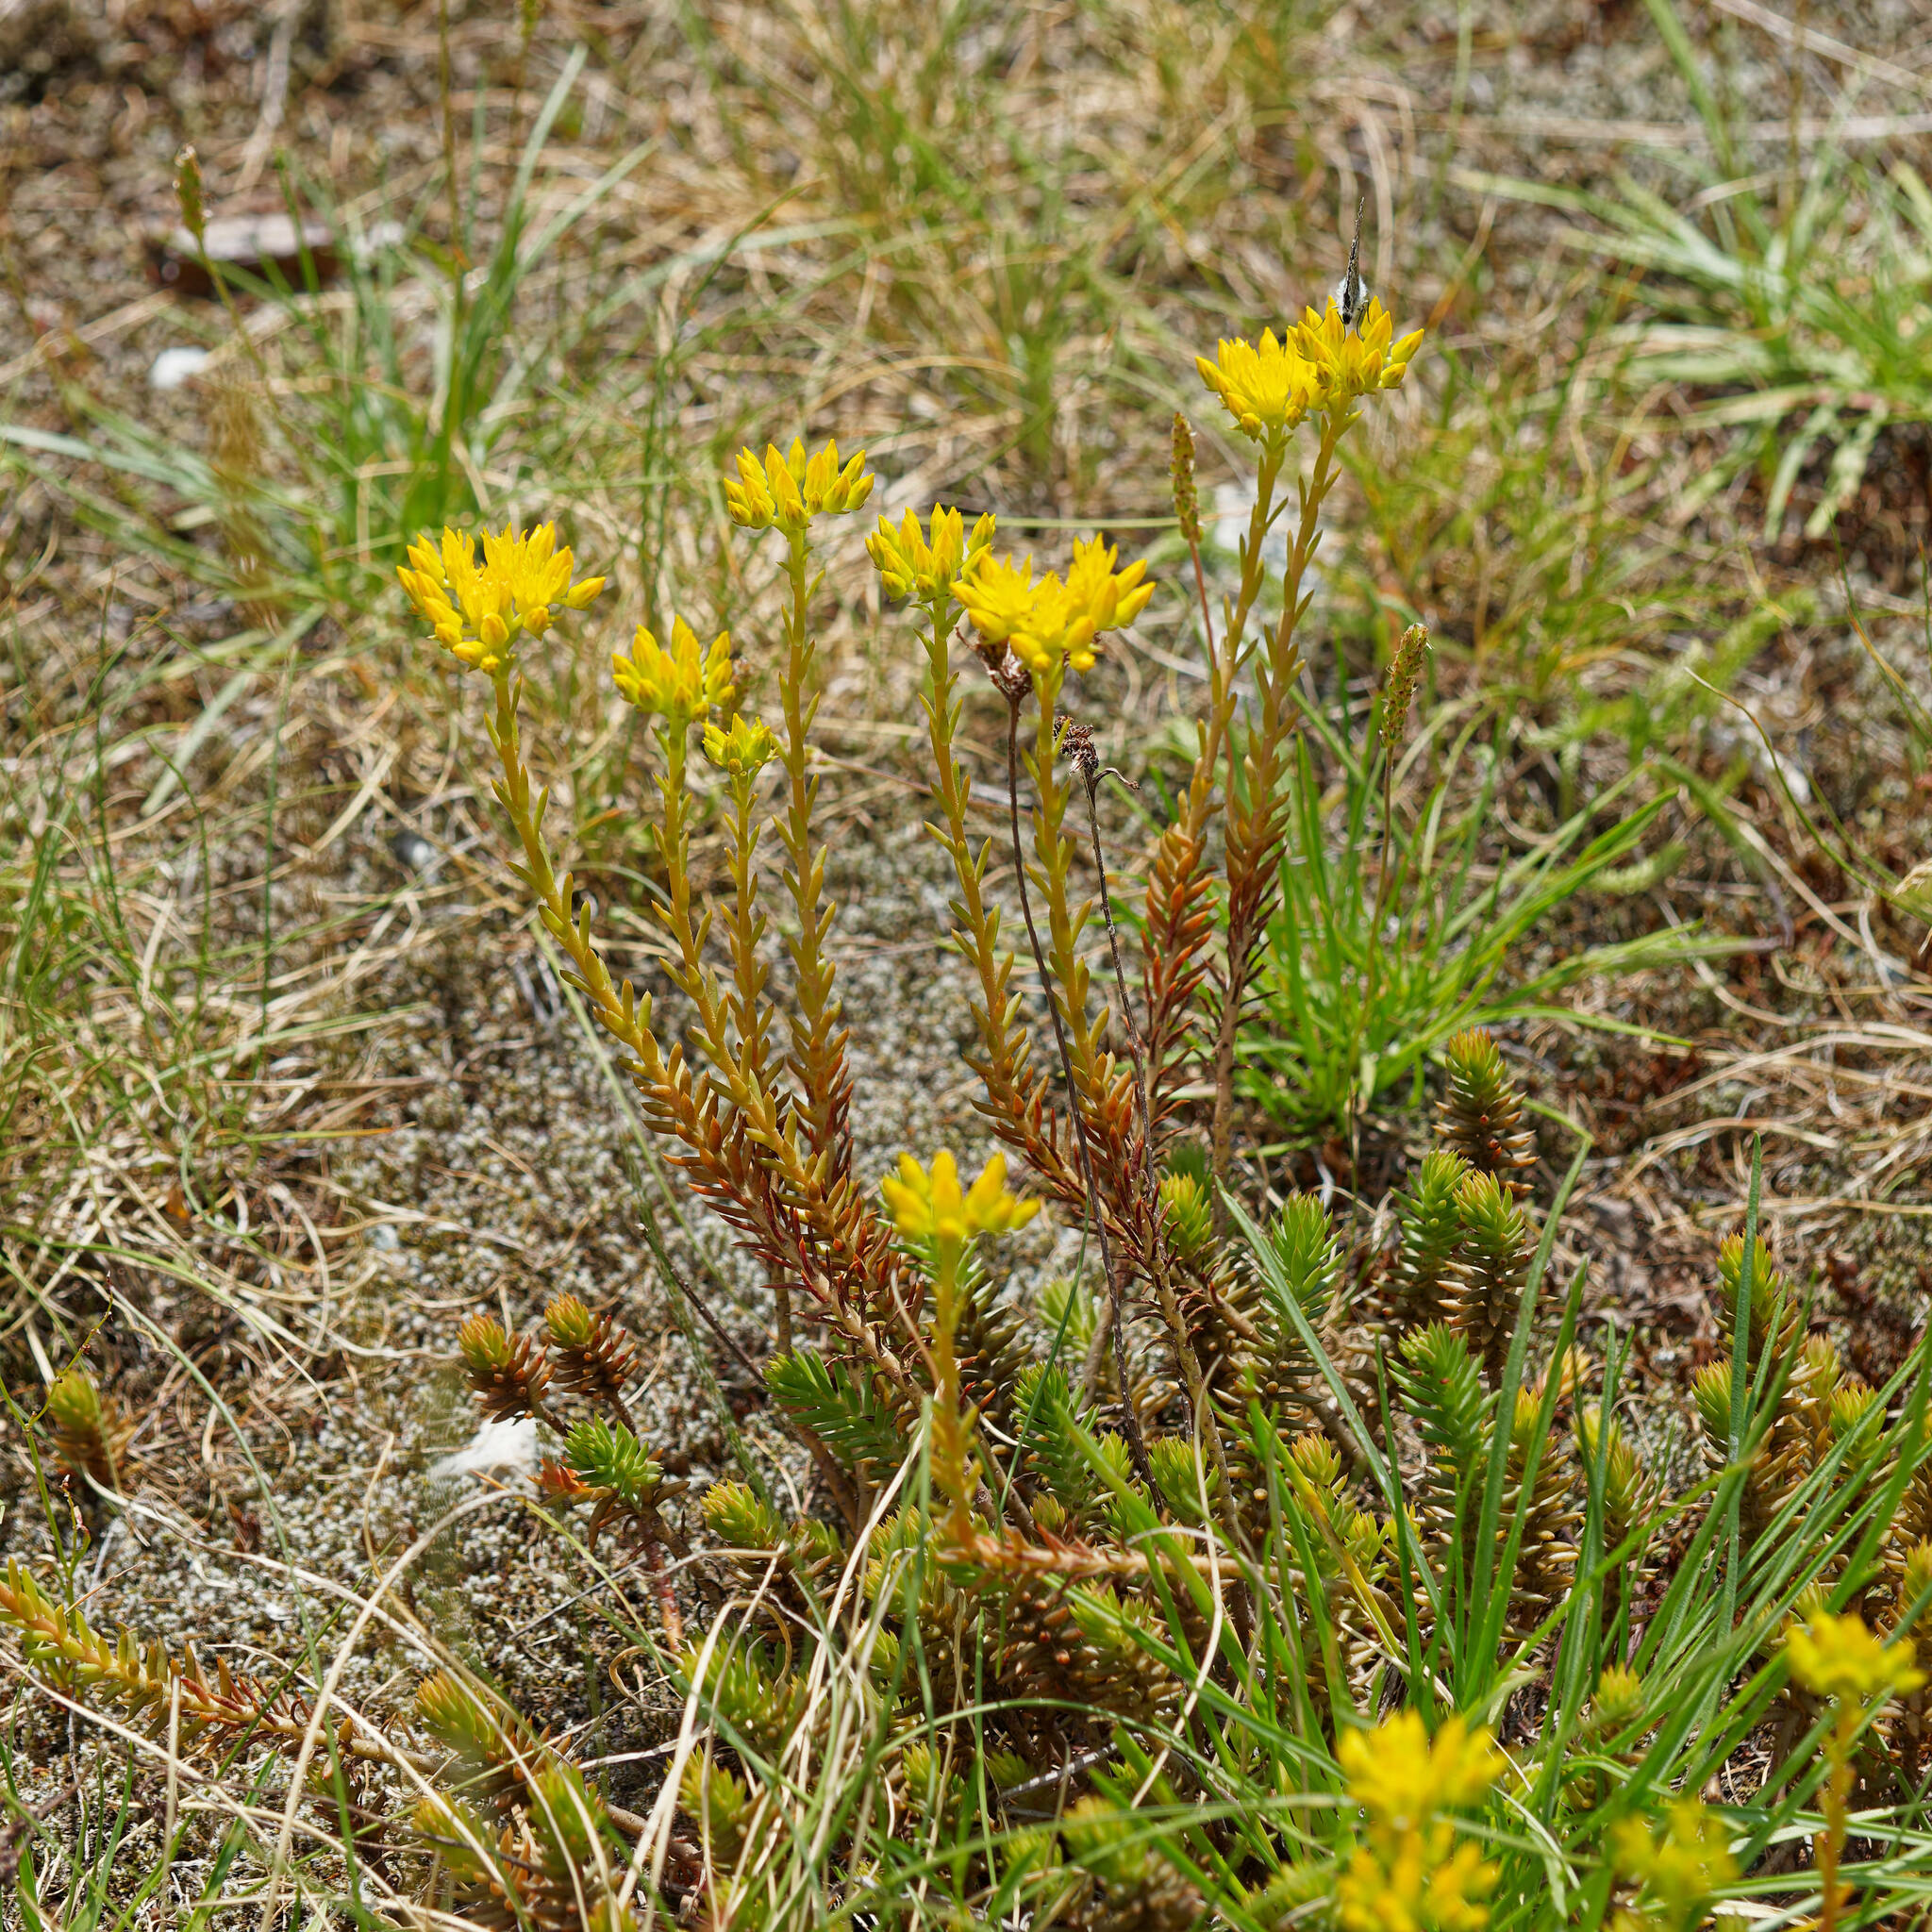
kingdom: Plantae
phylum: Tracheophyta
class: Magnoliopsida
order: Saxifragales
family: Crassulaceae
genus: Petrosedum
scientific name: Petrosedum montanum
